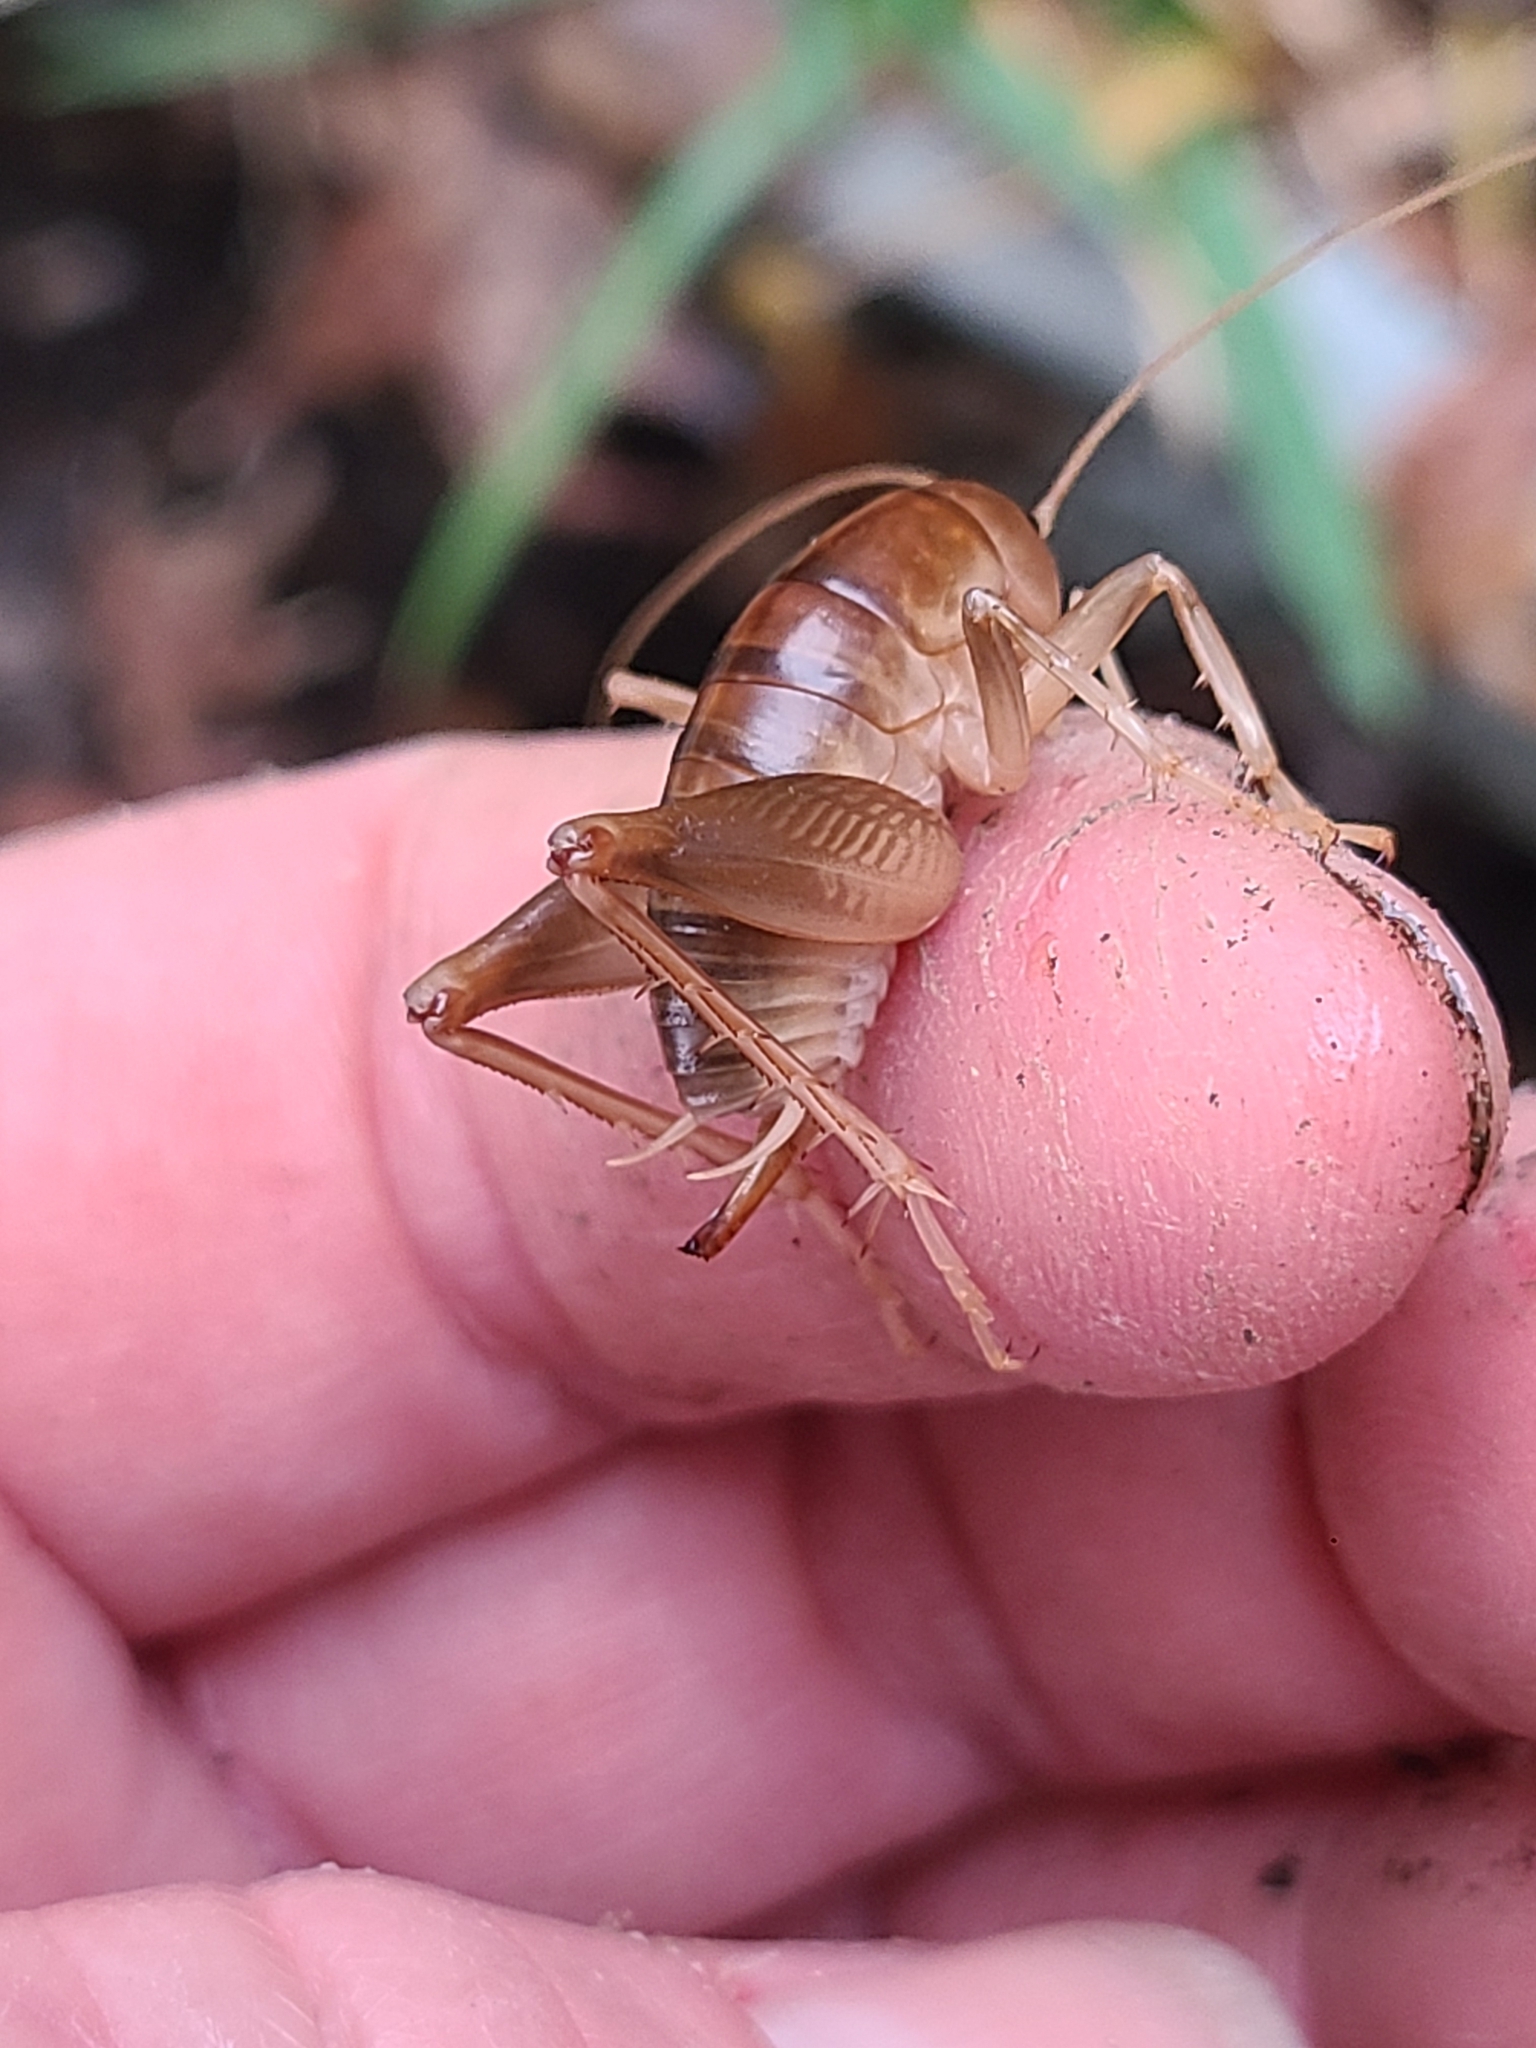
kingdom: Animalia
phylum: Arthropoda
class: Insecta
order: Orthoptera
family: Rhaphidophoridae
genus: Ceuthophilus
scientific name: Ceuthophilus californianus
